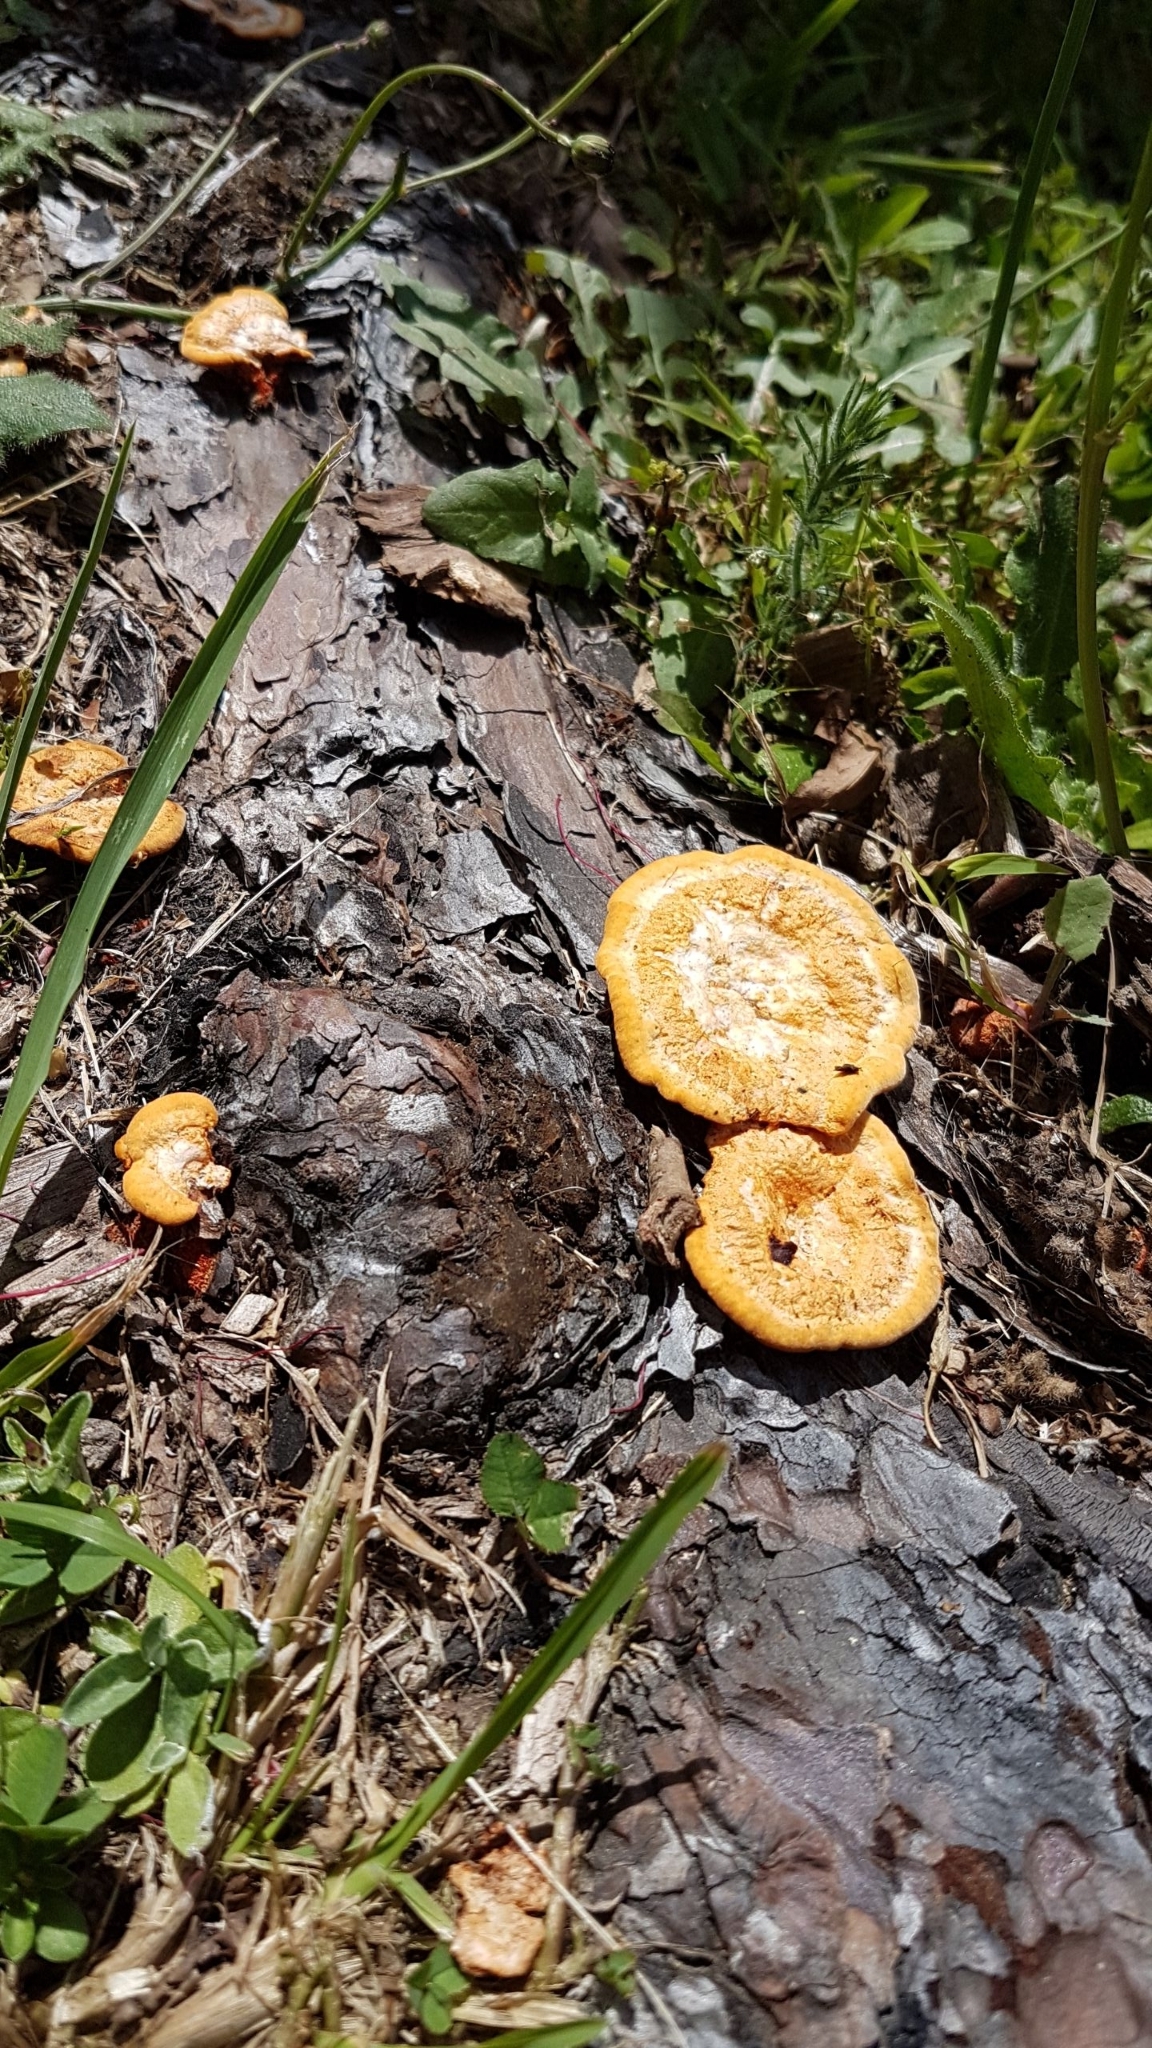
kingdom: Fungi
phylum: Basidiomycota
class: Agaricomycetes
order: Polyporales
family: Polyporaceae
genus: Trametes
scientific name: Trametes coccinea
